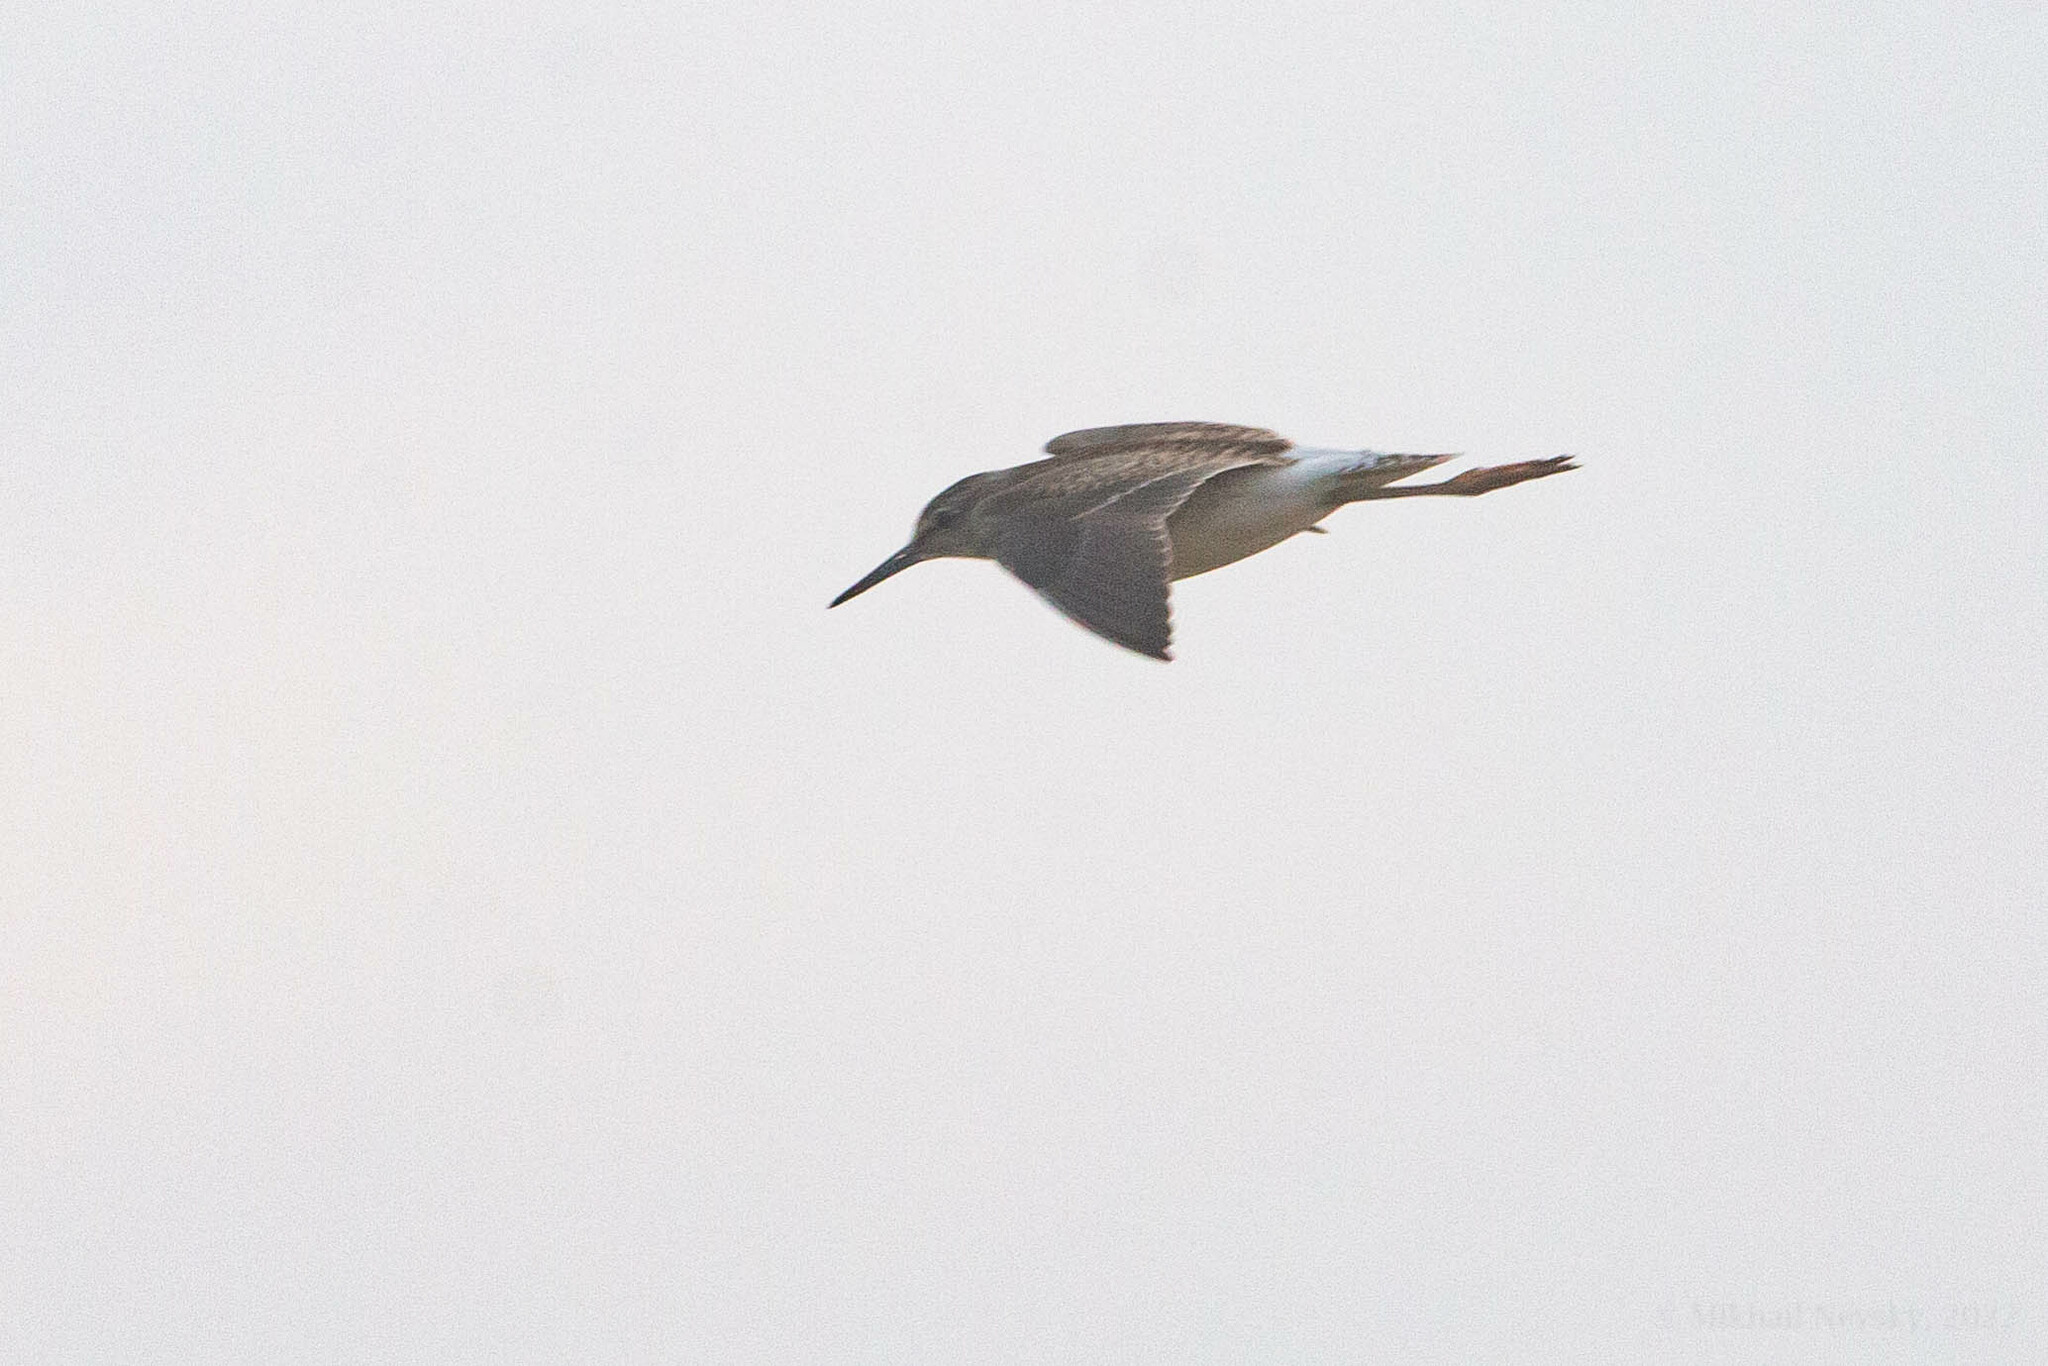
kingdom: Animalia
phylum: Chordata
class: Aves
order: Charadriiformes
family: Scolopacidae
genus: Tringa
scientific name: Tringa glareola
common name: Wood sandpiper
